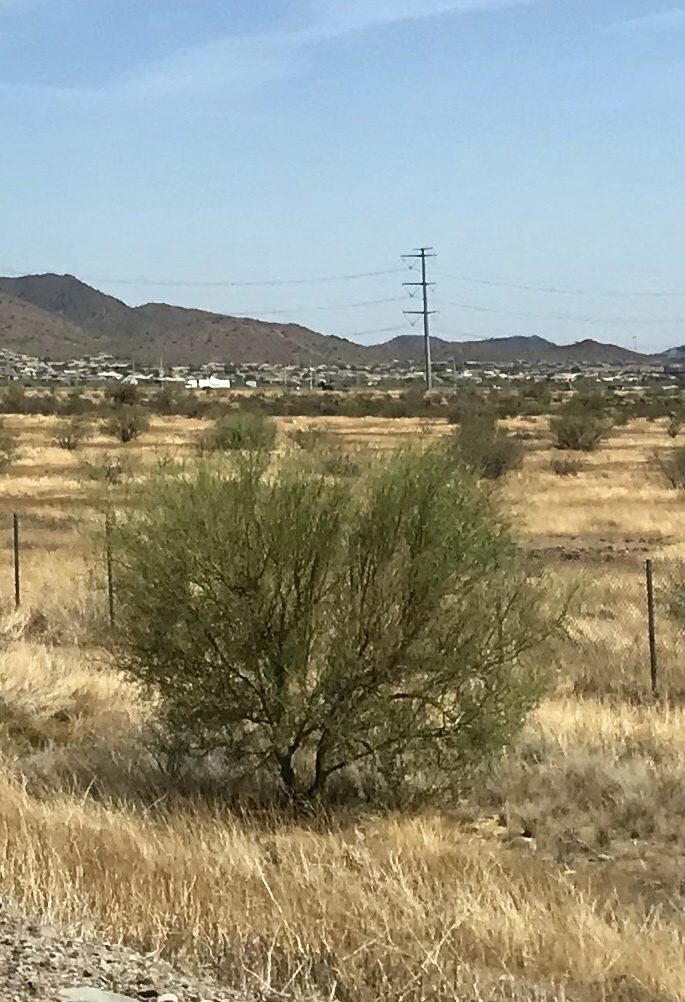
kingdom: Plantae
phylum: Tracheophyta
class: Magnoliopsida
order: Fabales
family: Fabaceae
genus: Parkinsonia
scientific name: Parkinsonia microphylla
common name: Yellow paloverde
